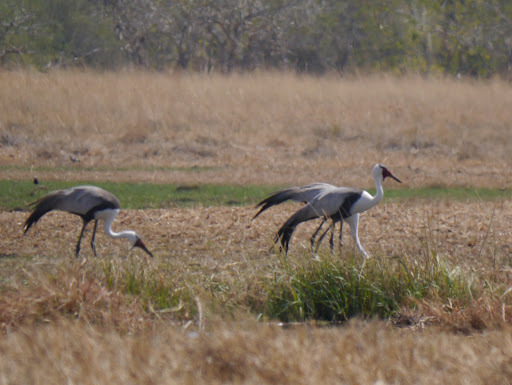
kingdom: Animalia
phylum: Chordata
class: Aves
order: Gruiformes
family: Gruidae
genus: Bugeranus
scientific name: Bugeranus carunculatus
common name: Wattled crane
